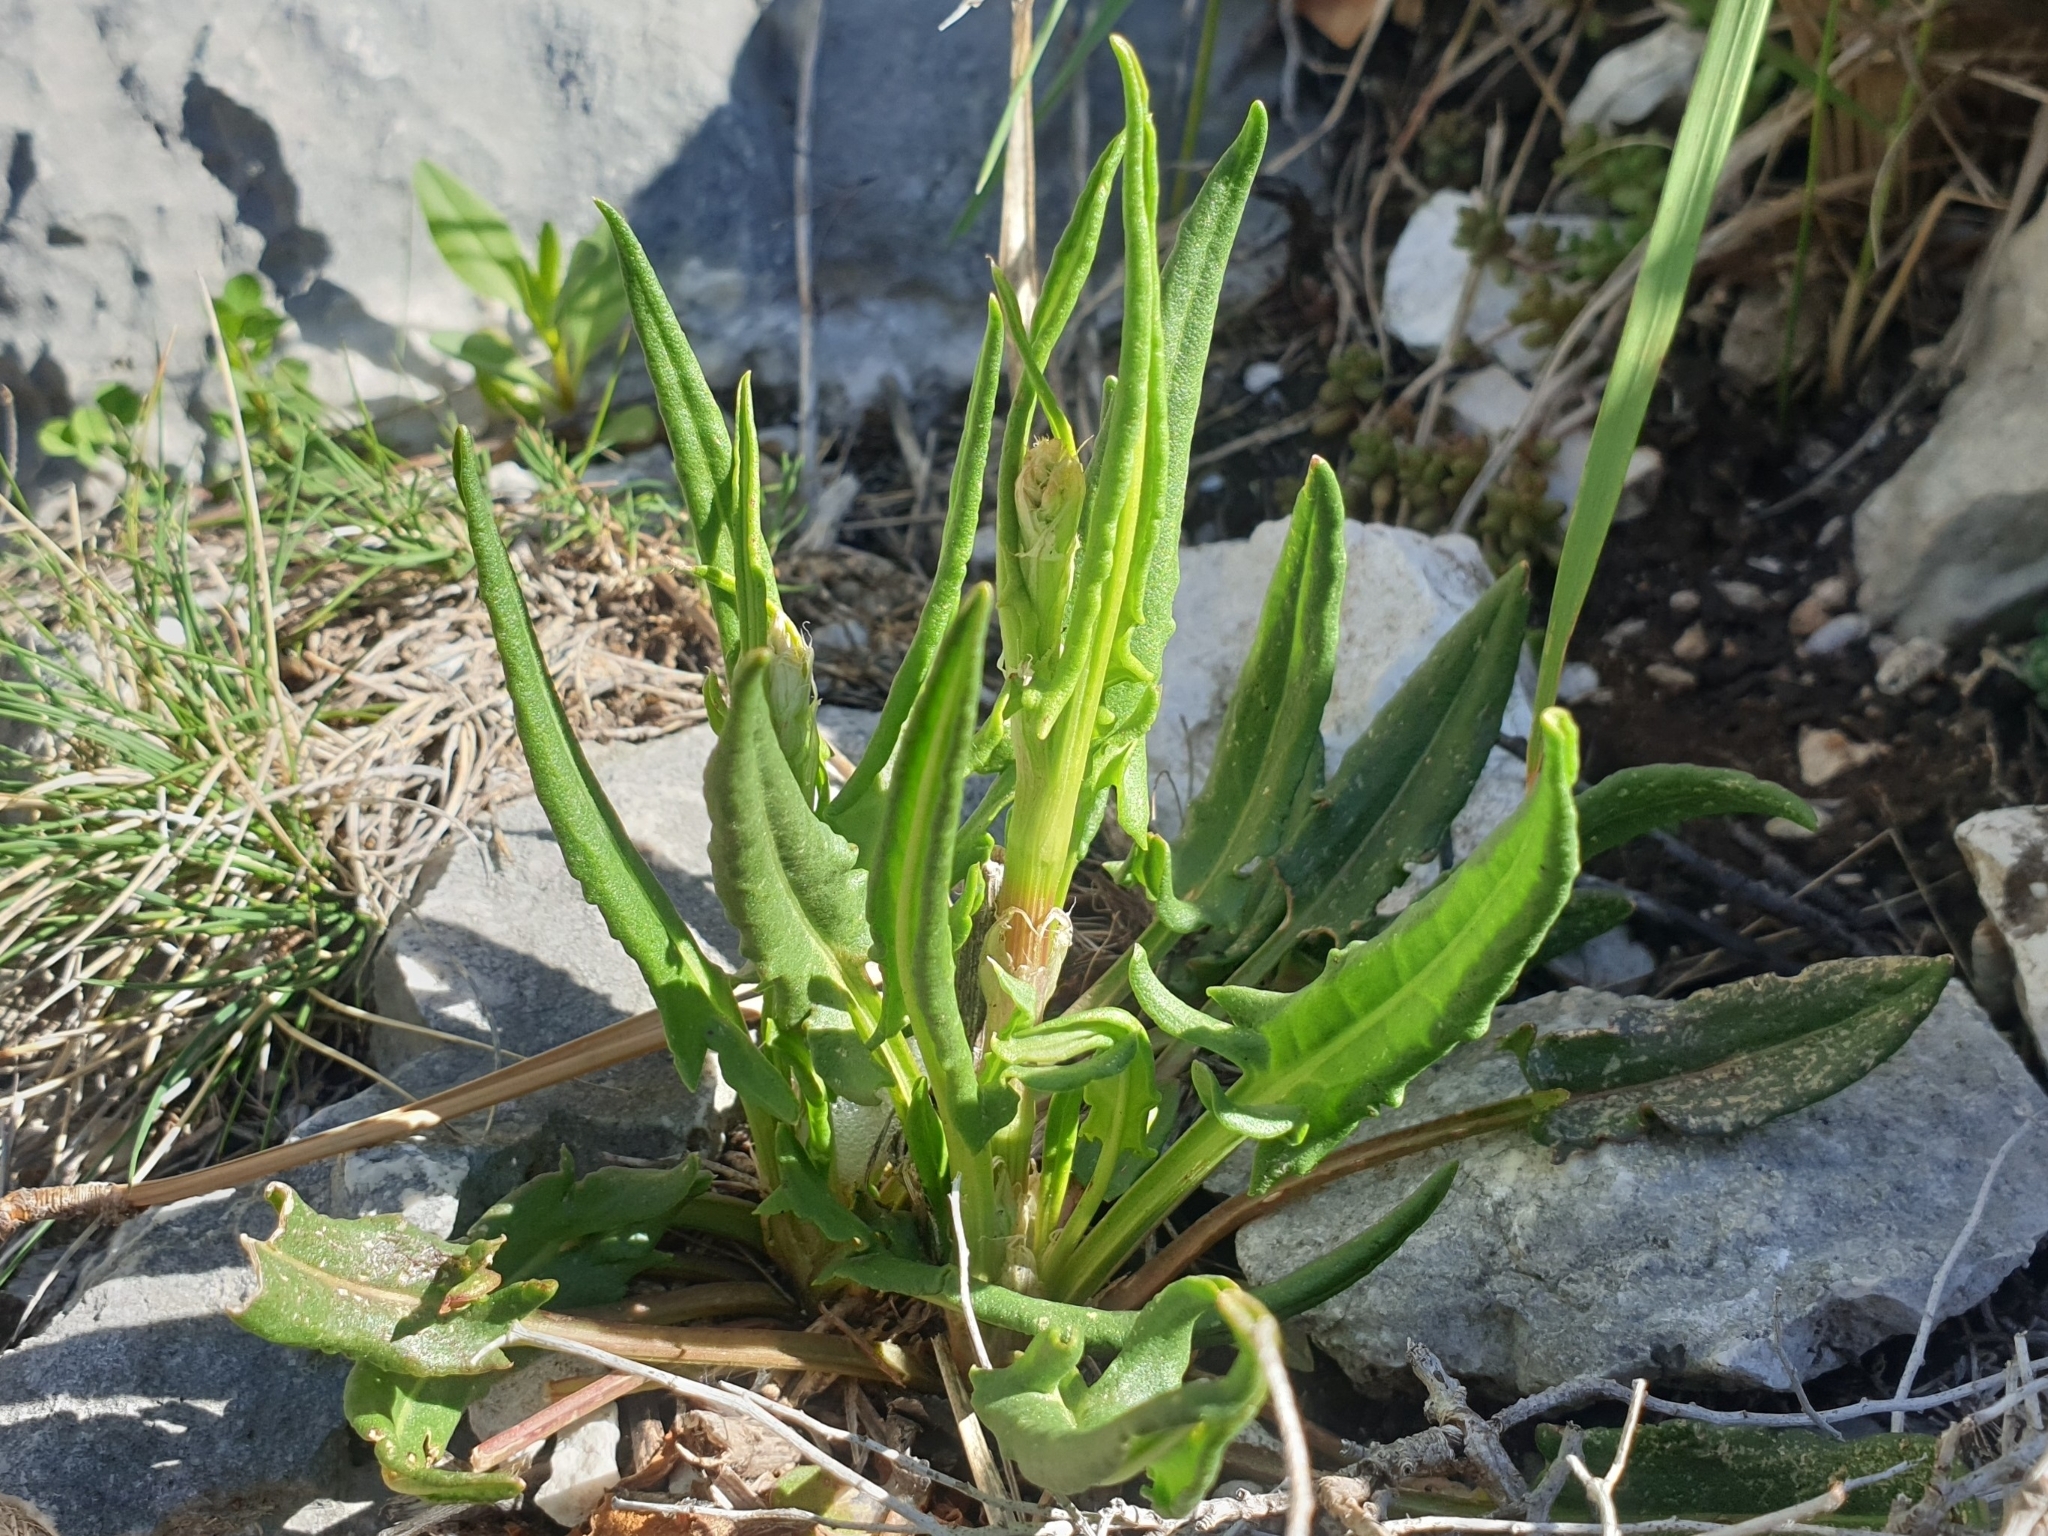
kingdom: Plantae
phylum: Tracheophyta
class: Magnoliopsida
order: Caryophyllales
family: Polygonaceae
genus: Rumex
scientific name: Rumex intermedius
